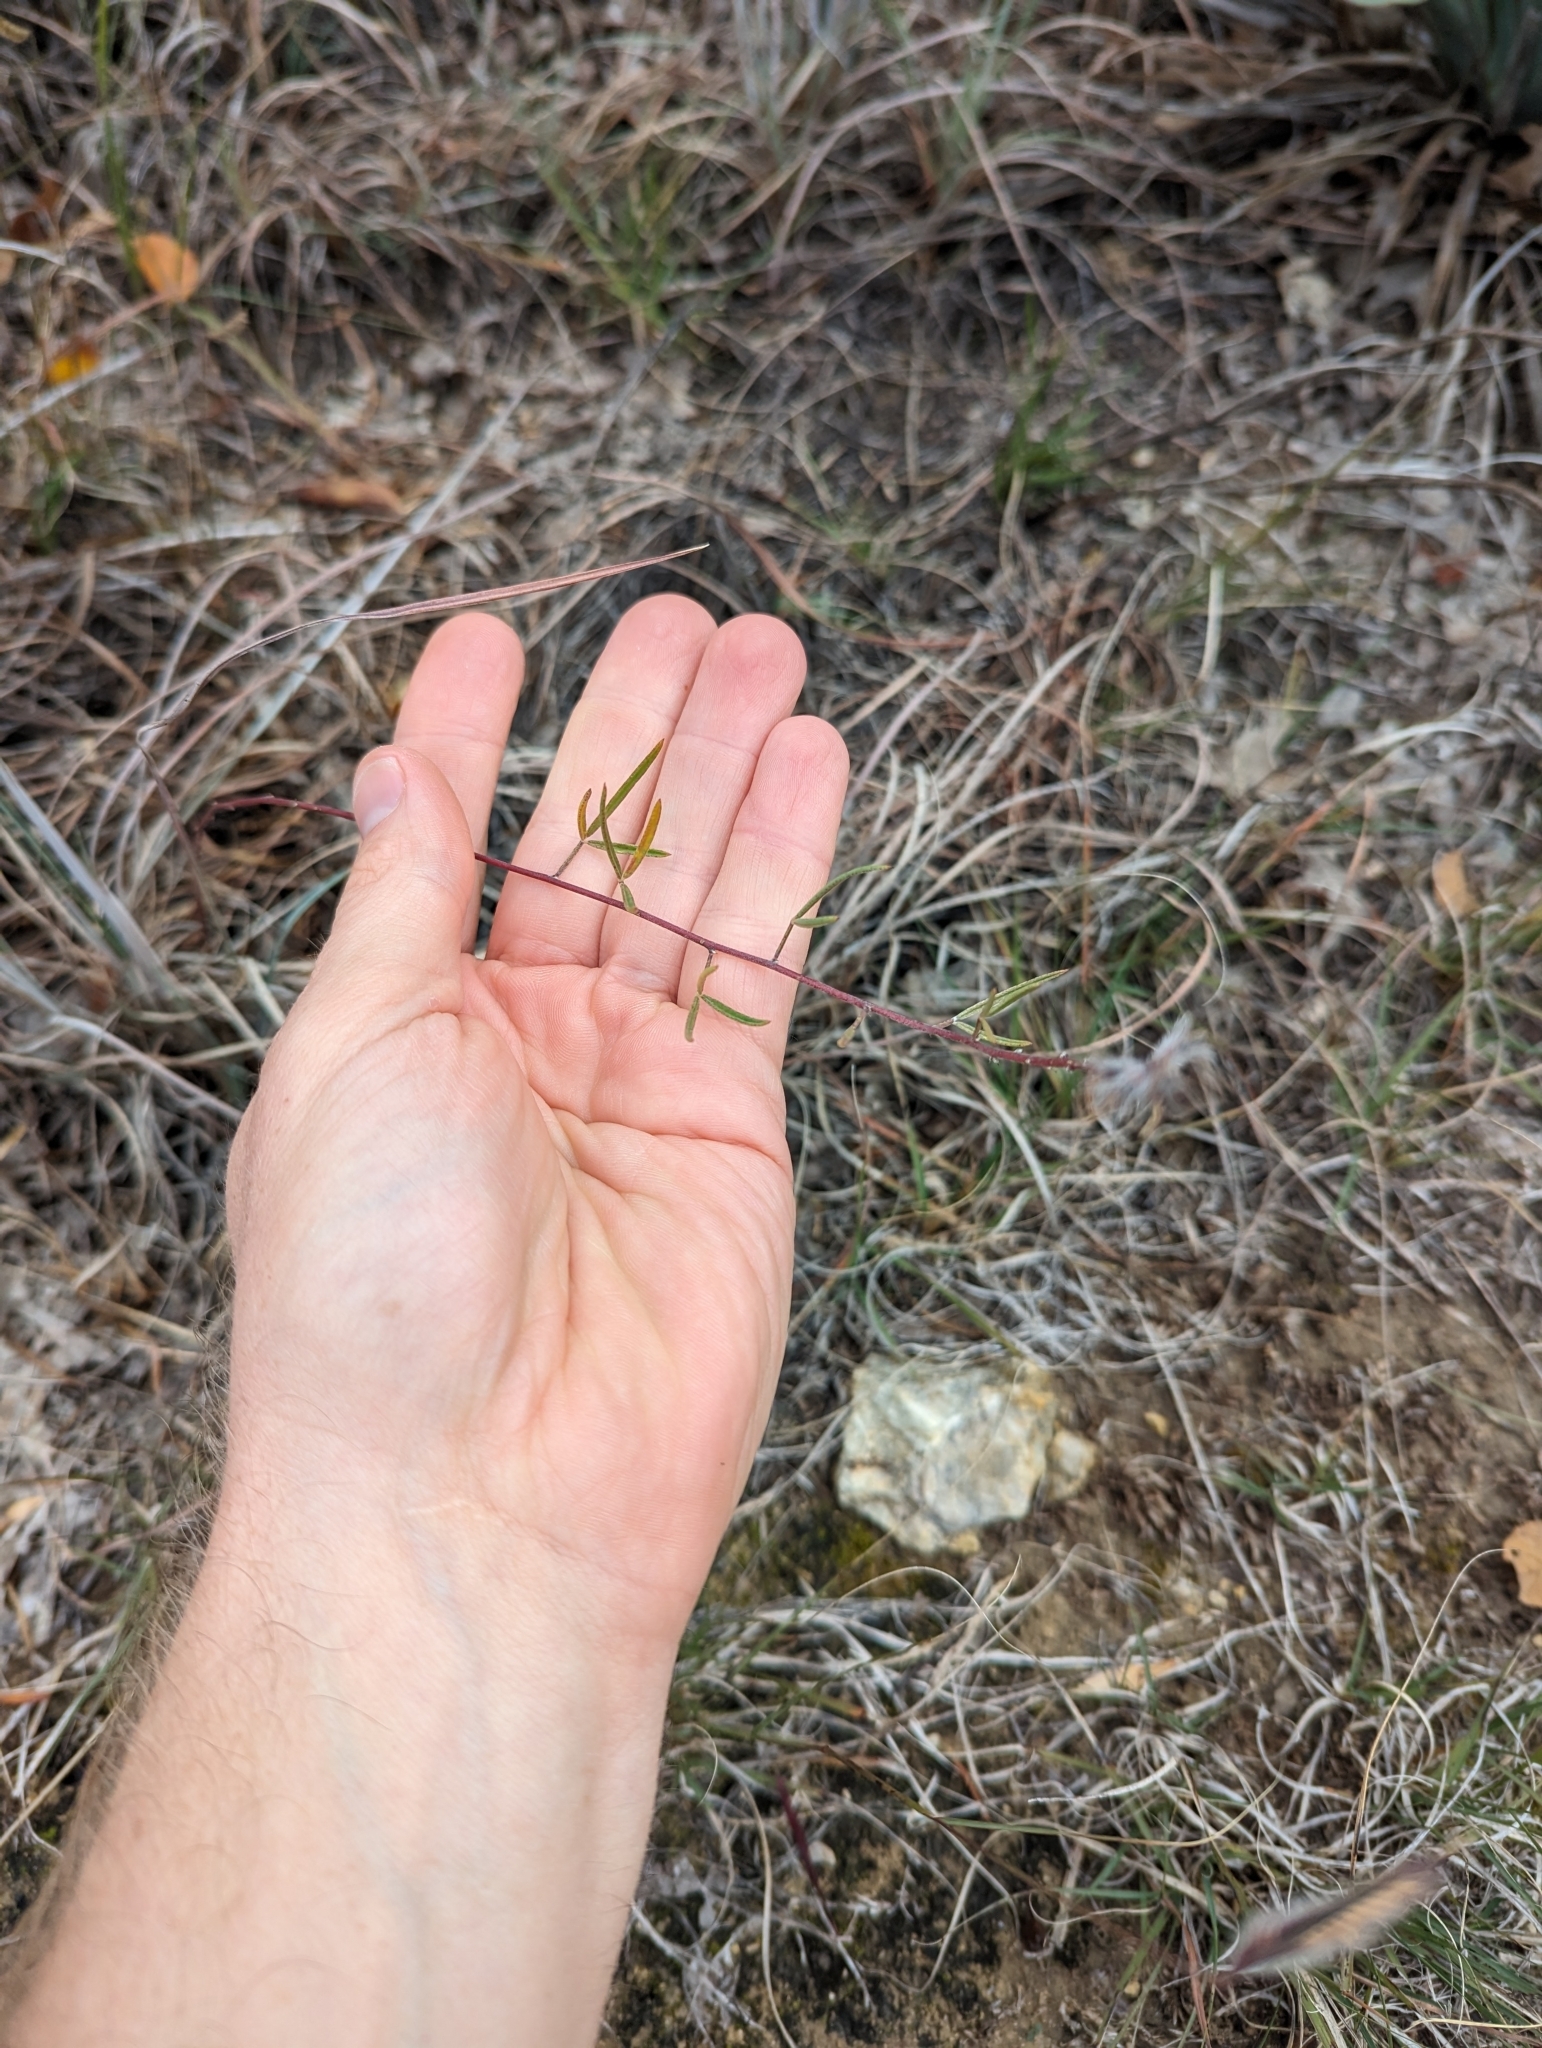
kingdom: Plantae
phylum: Tracheophyta
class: Magnoliopsida
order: Fabales
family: Fabaceae
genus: Dalea
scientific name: Dalea hallii
